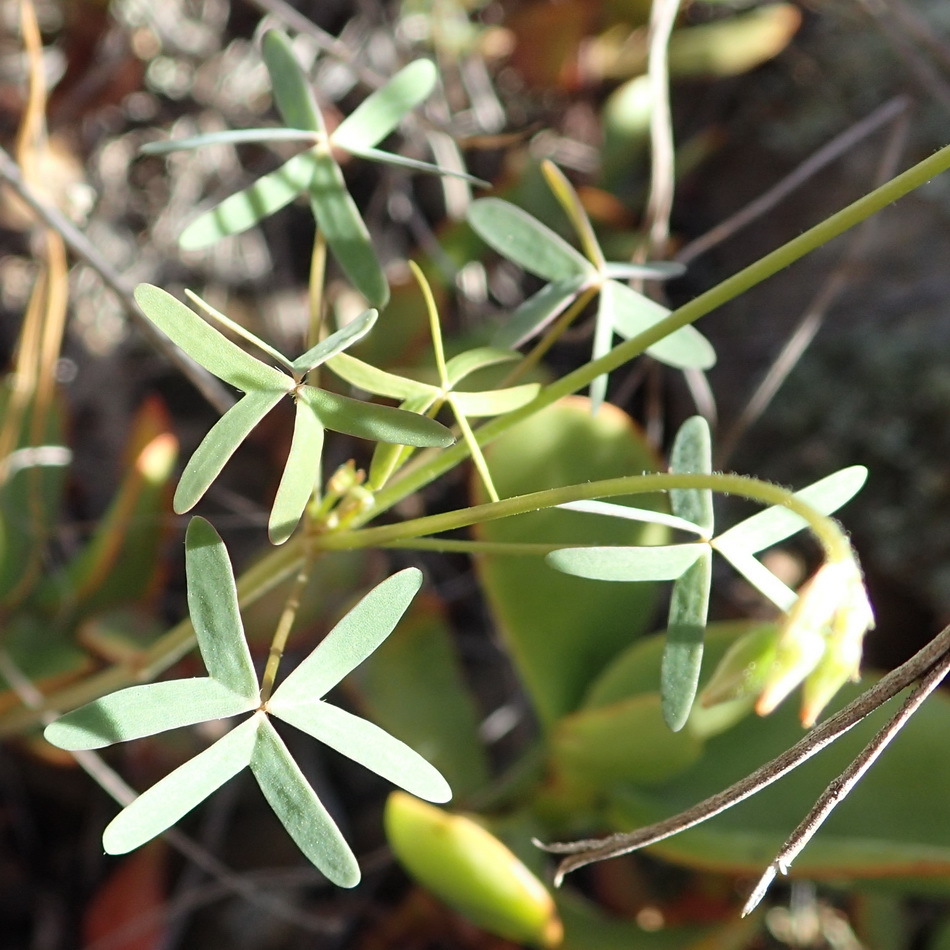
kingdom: Plantae
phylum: Tracheophyta
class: Magnoliopsida
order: Oxalidales
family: Oxalidaceae
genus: Oxalis
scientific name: Oxalis stellata
